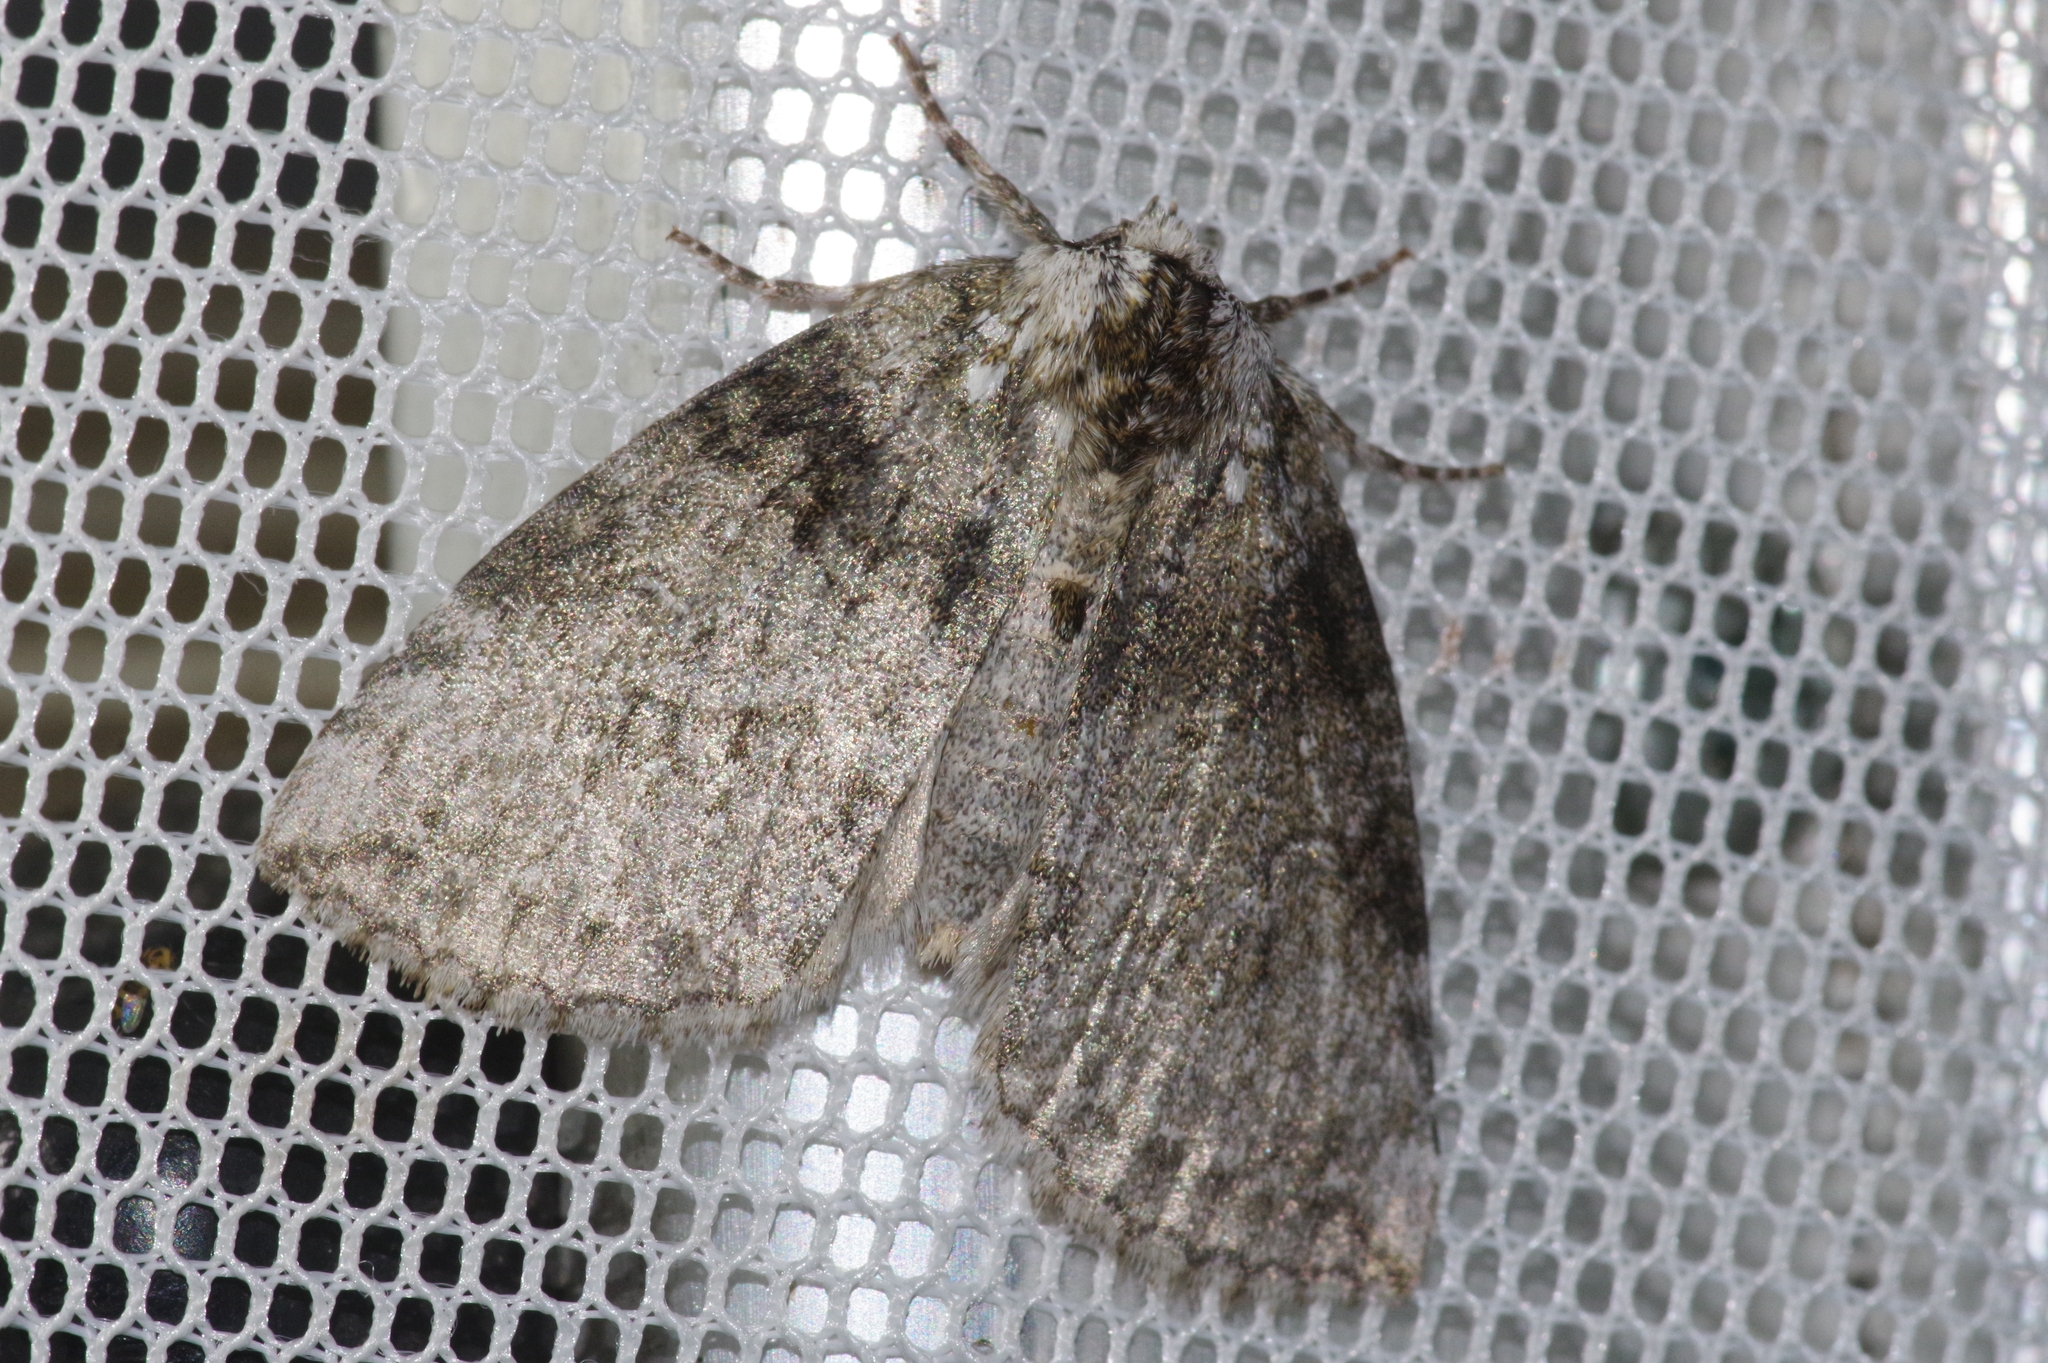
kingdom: Animalia
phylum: Arthropoda
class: Insecta
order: Lepidoptera
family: Drepanidae
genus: Parapsestis
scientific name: Parapsestis argenteopicta
